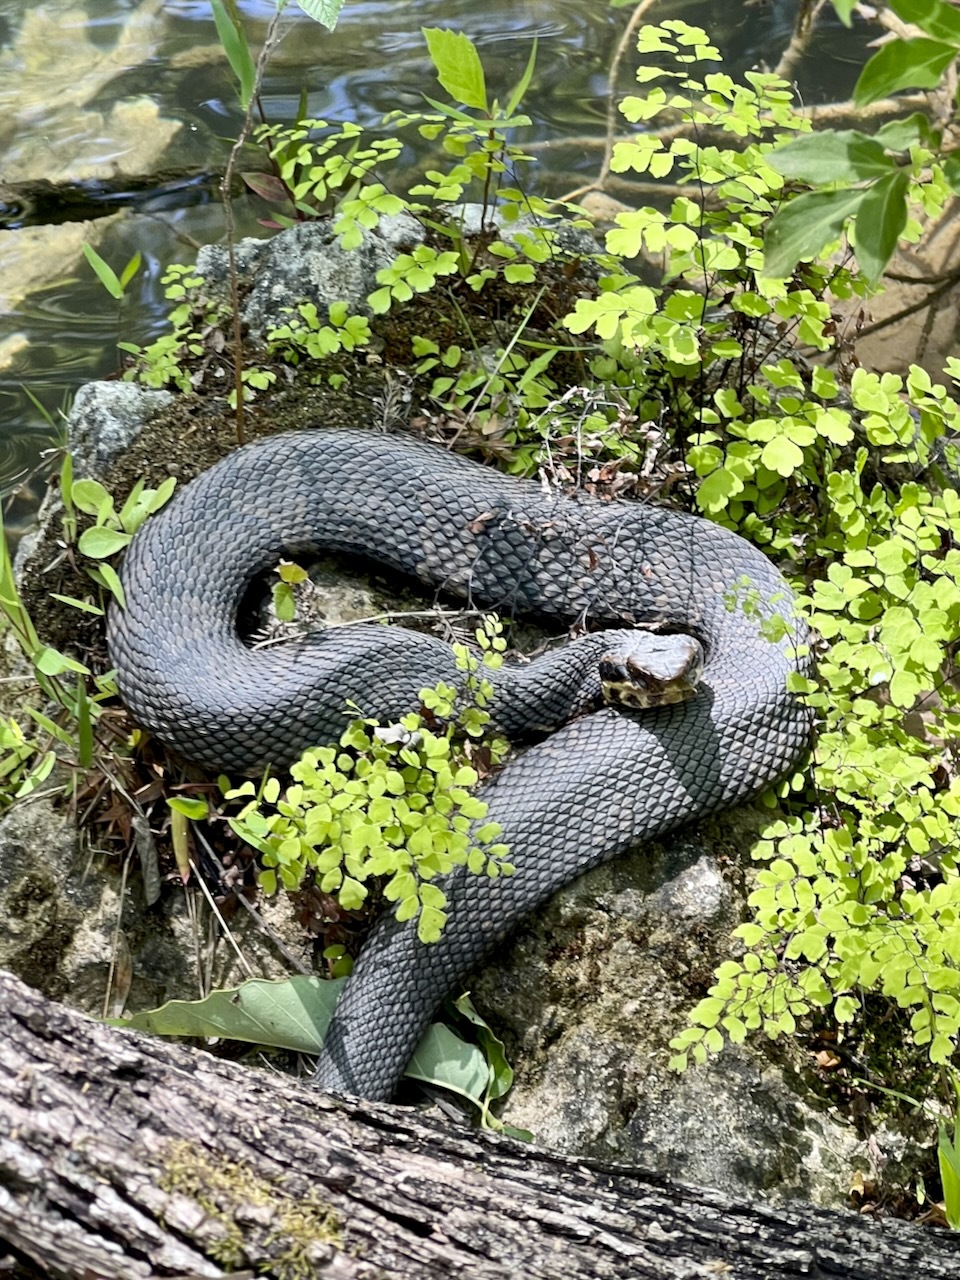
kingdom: Animalia
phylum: Chordata
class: Squamata
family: Viperidae
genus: Agkistrodon
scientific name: Agkistrodon piscivorus
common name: Cottonmouth
